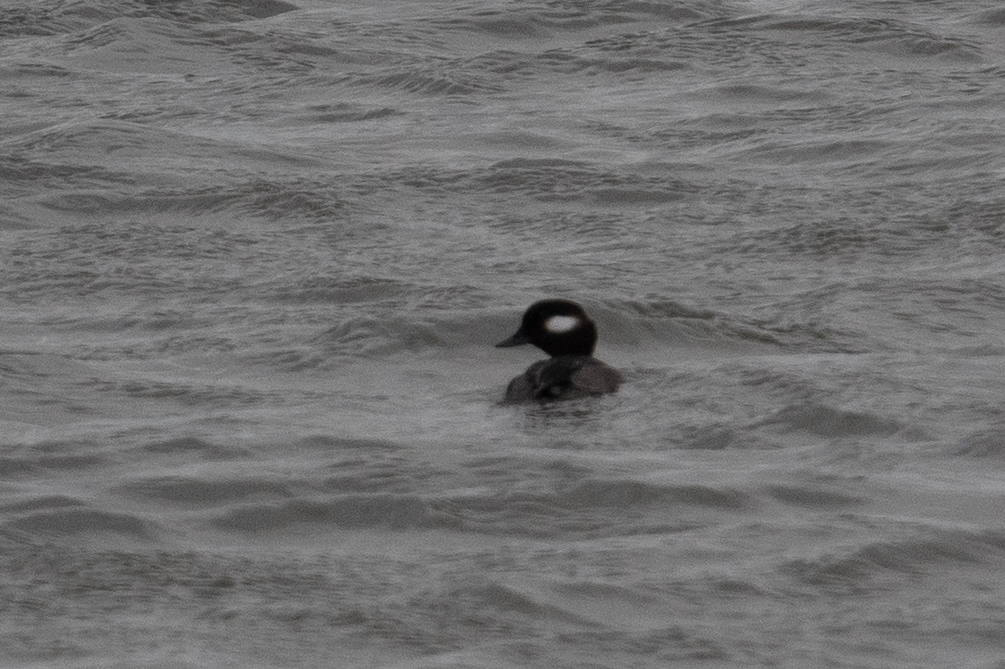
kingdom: Animalia
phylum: Chordata
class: Aves
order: Anseriformes
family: Anatidae
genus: Bucephala
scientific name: Bucephala albeola
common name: Bufflehead
